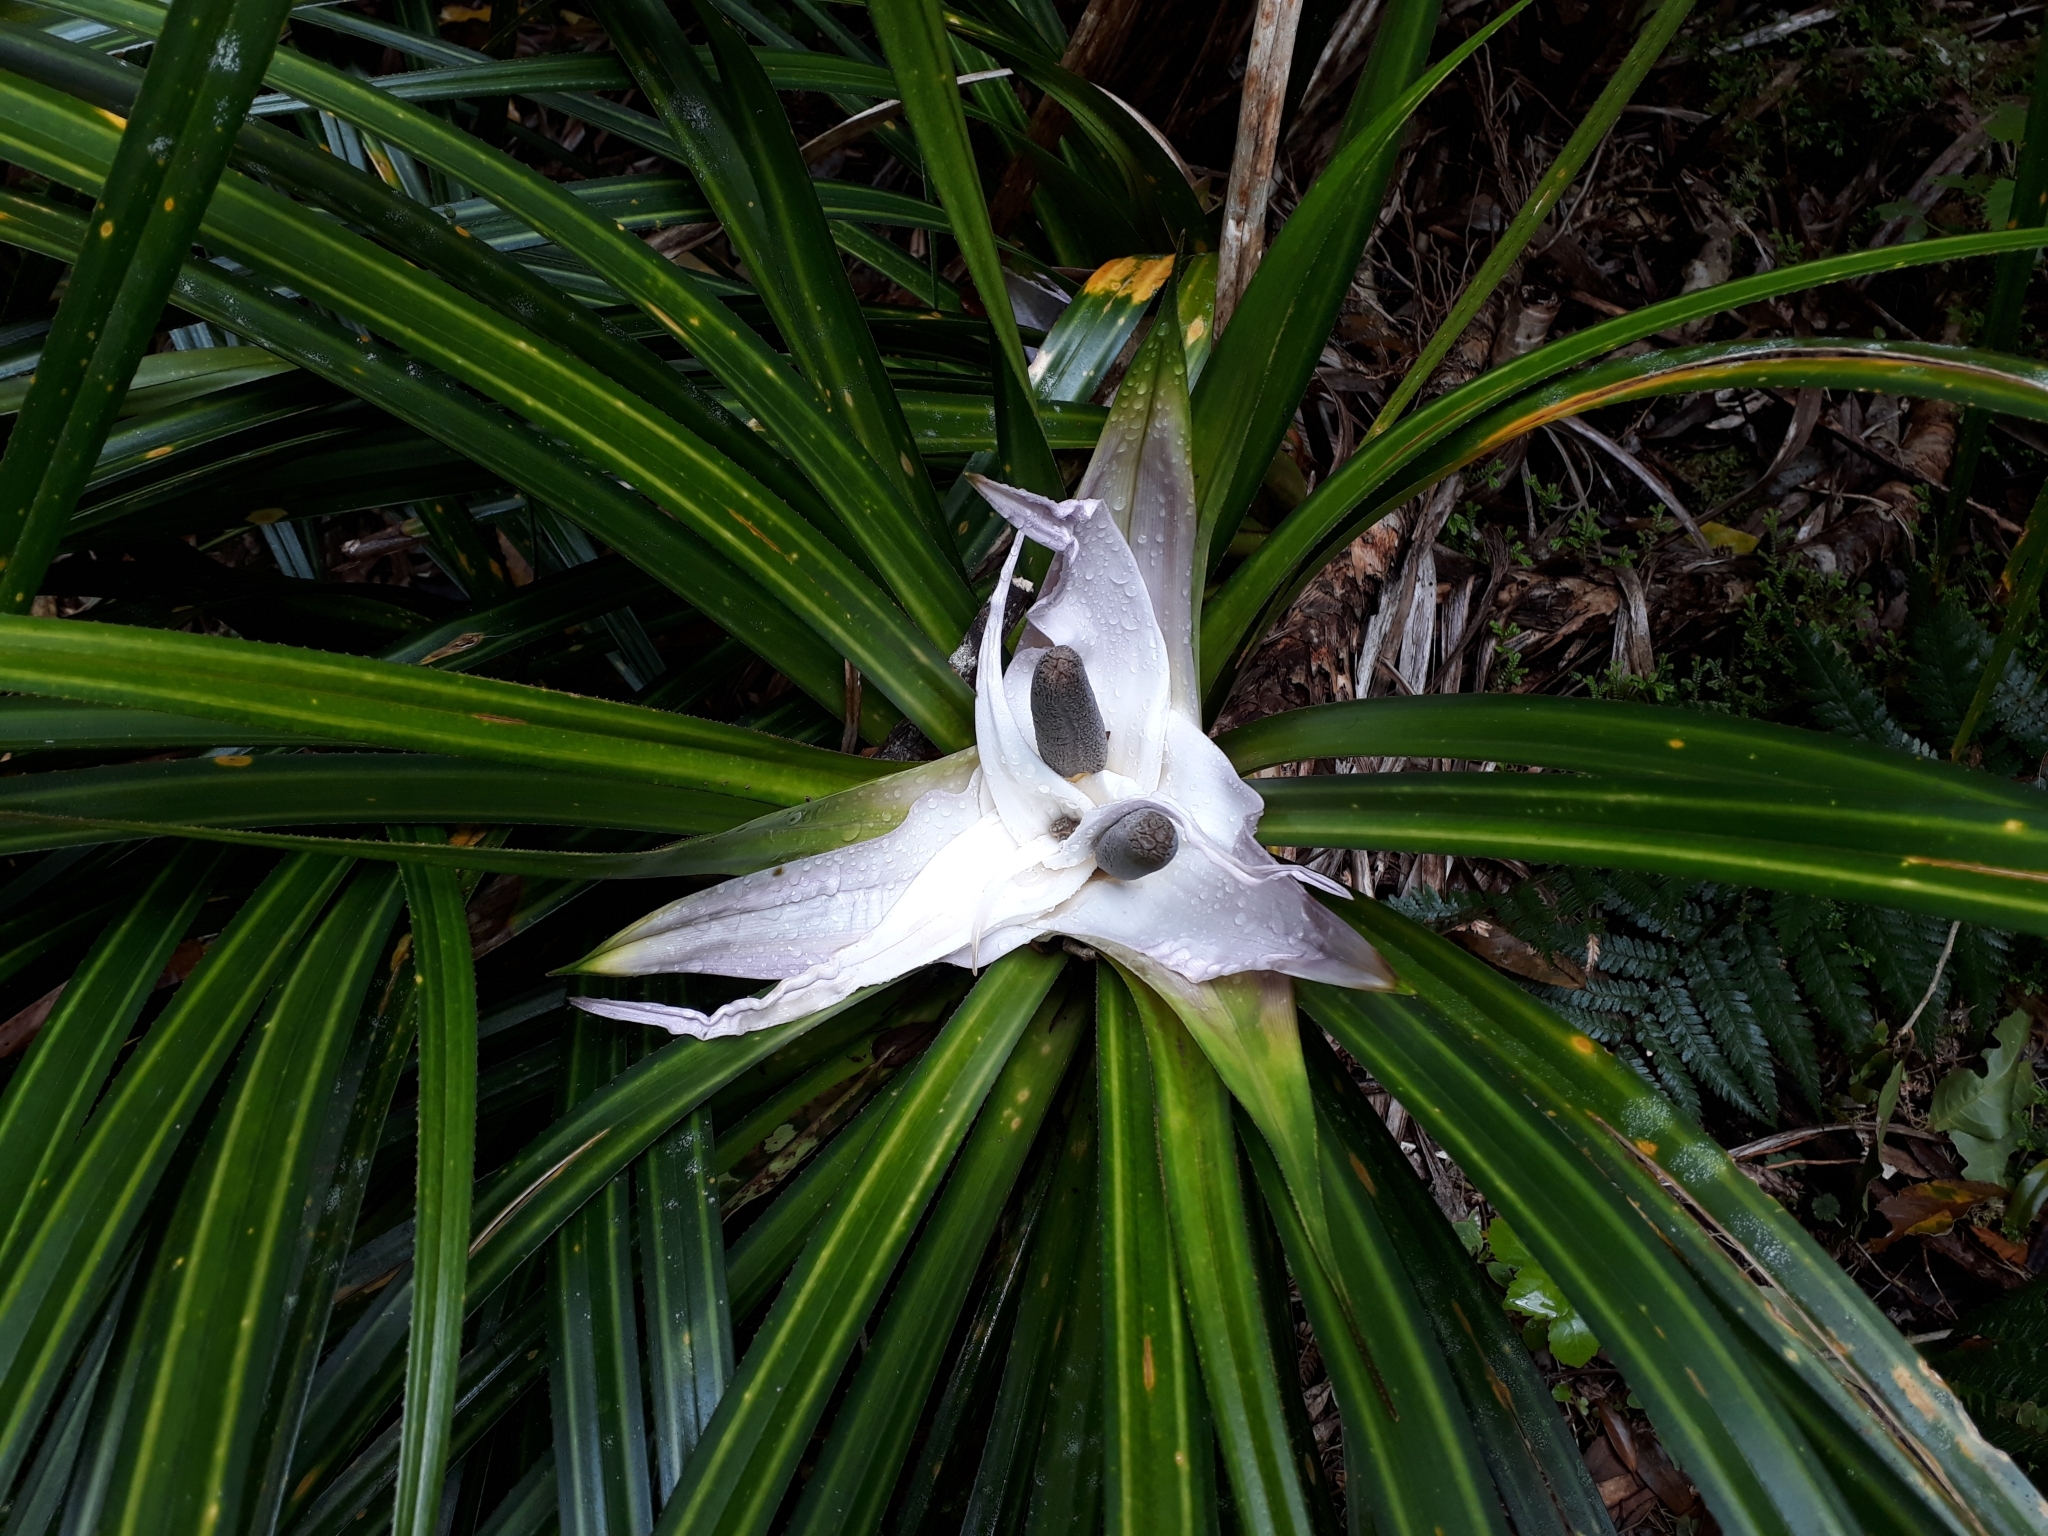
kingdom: Plantae
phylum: Tracheophyta
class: Liliopsida
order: Pandanales
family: Pandanaceae
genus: Freycinetia
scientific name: Freycinetia banksii
